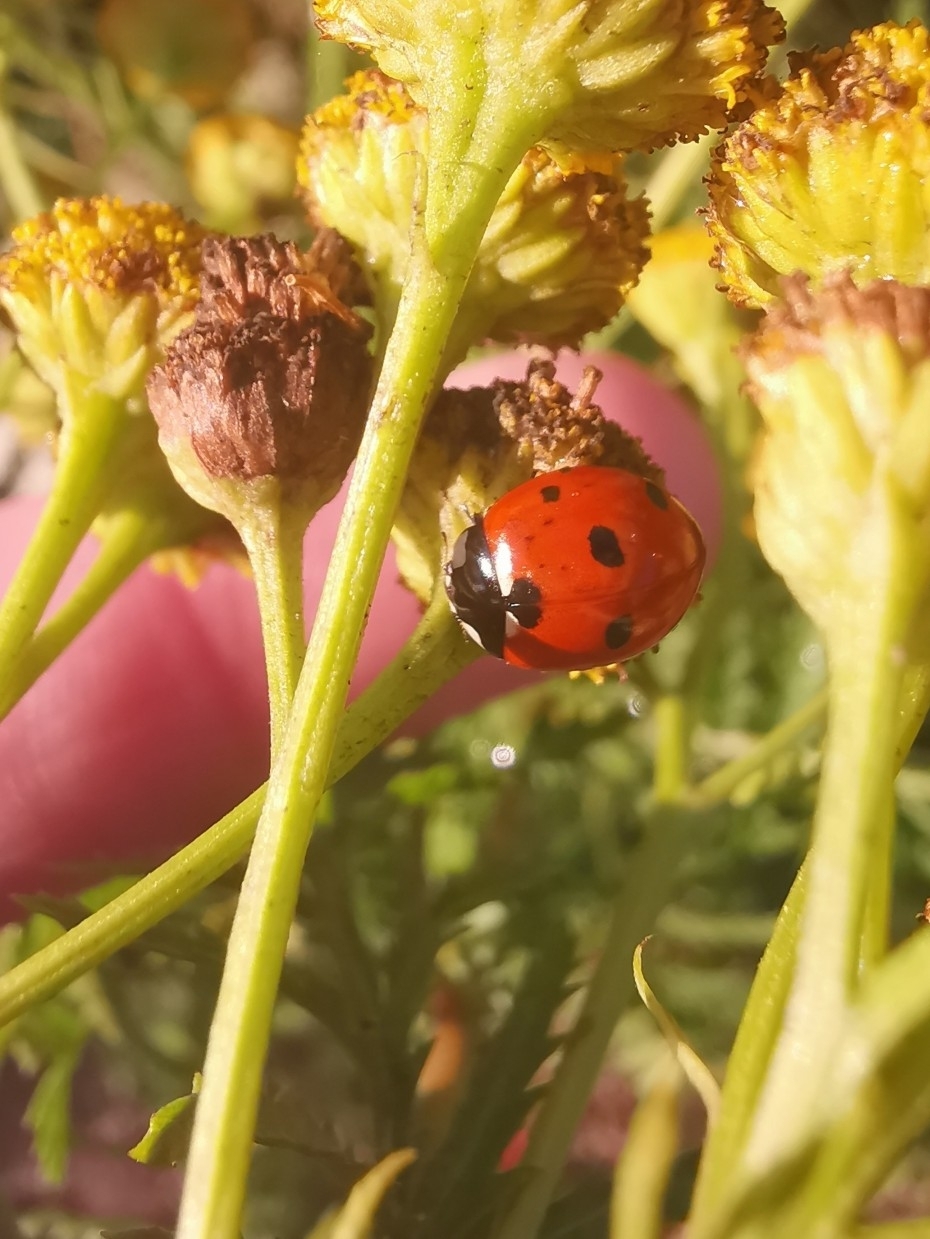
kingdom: Animalia
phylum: Arthropoda
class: Insecta
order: Coleoptera
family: Coccinellidae
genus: Coccinella
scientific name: Coccinella septempunctata
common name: Sevenspotted lady beetle
